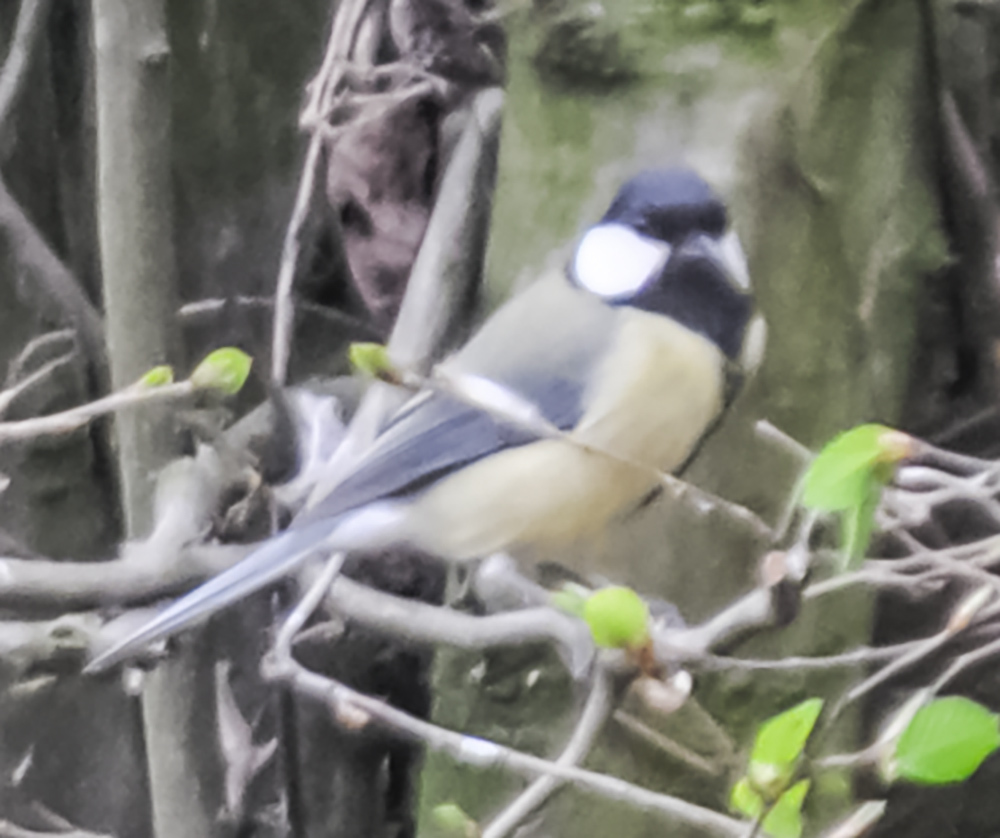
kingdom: Animalia
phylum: Chordata
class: Aves
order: Passeriformes
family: Paridae
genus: Parus
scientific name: Parus major
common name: Great tit
